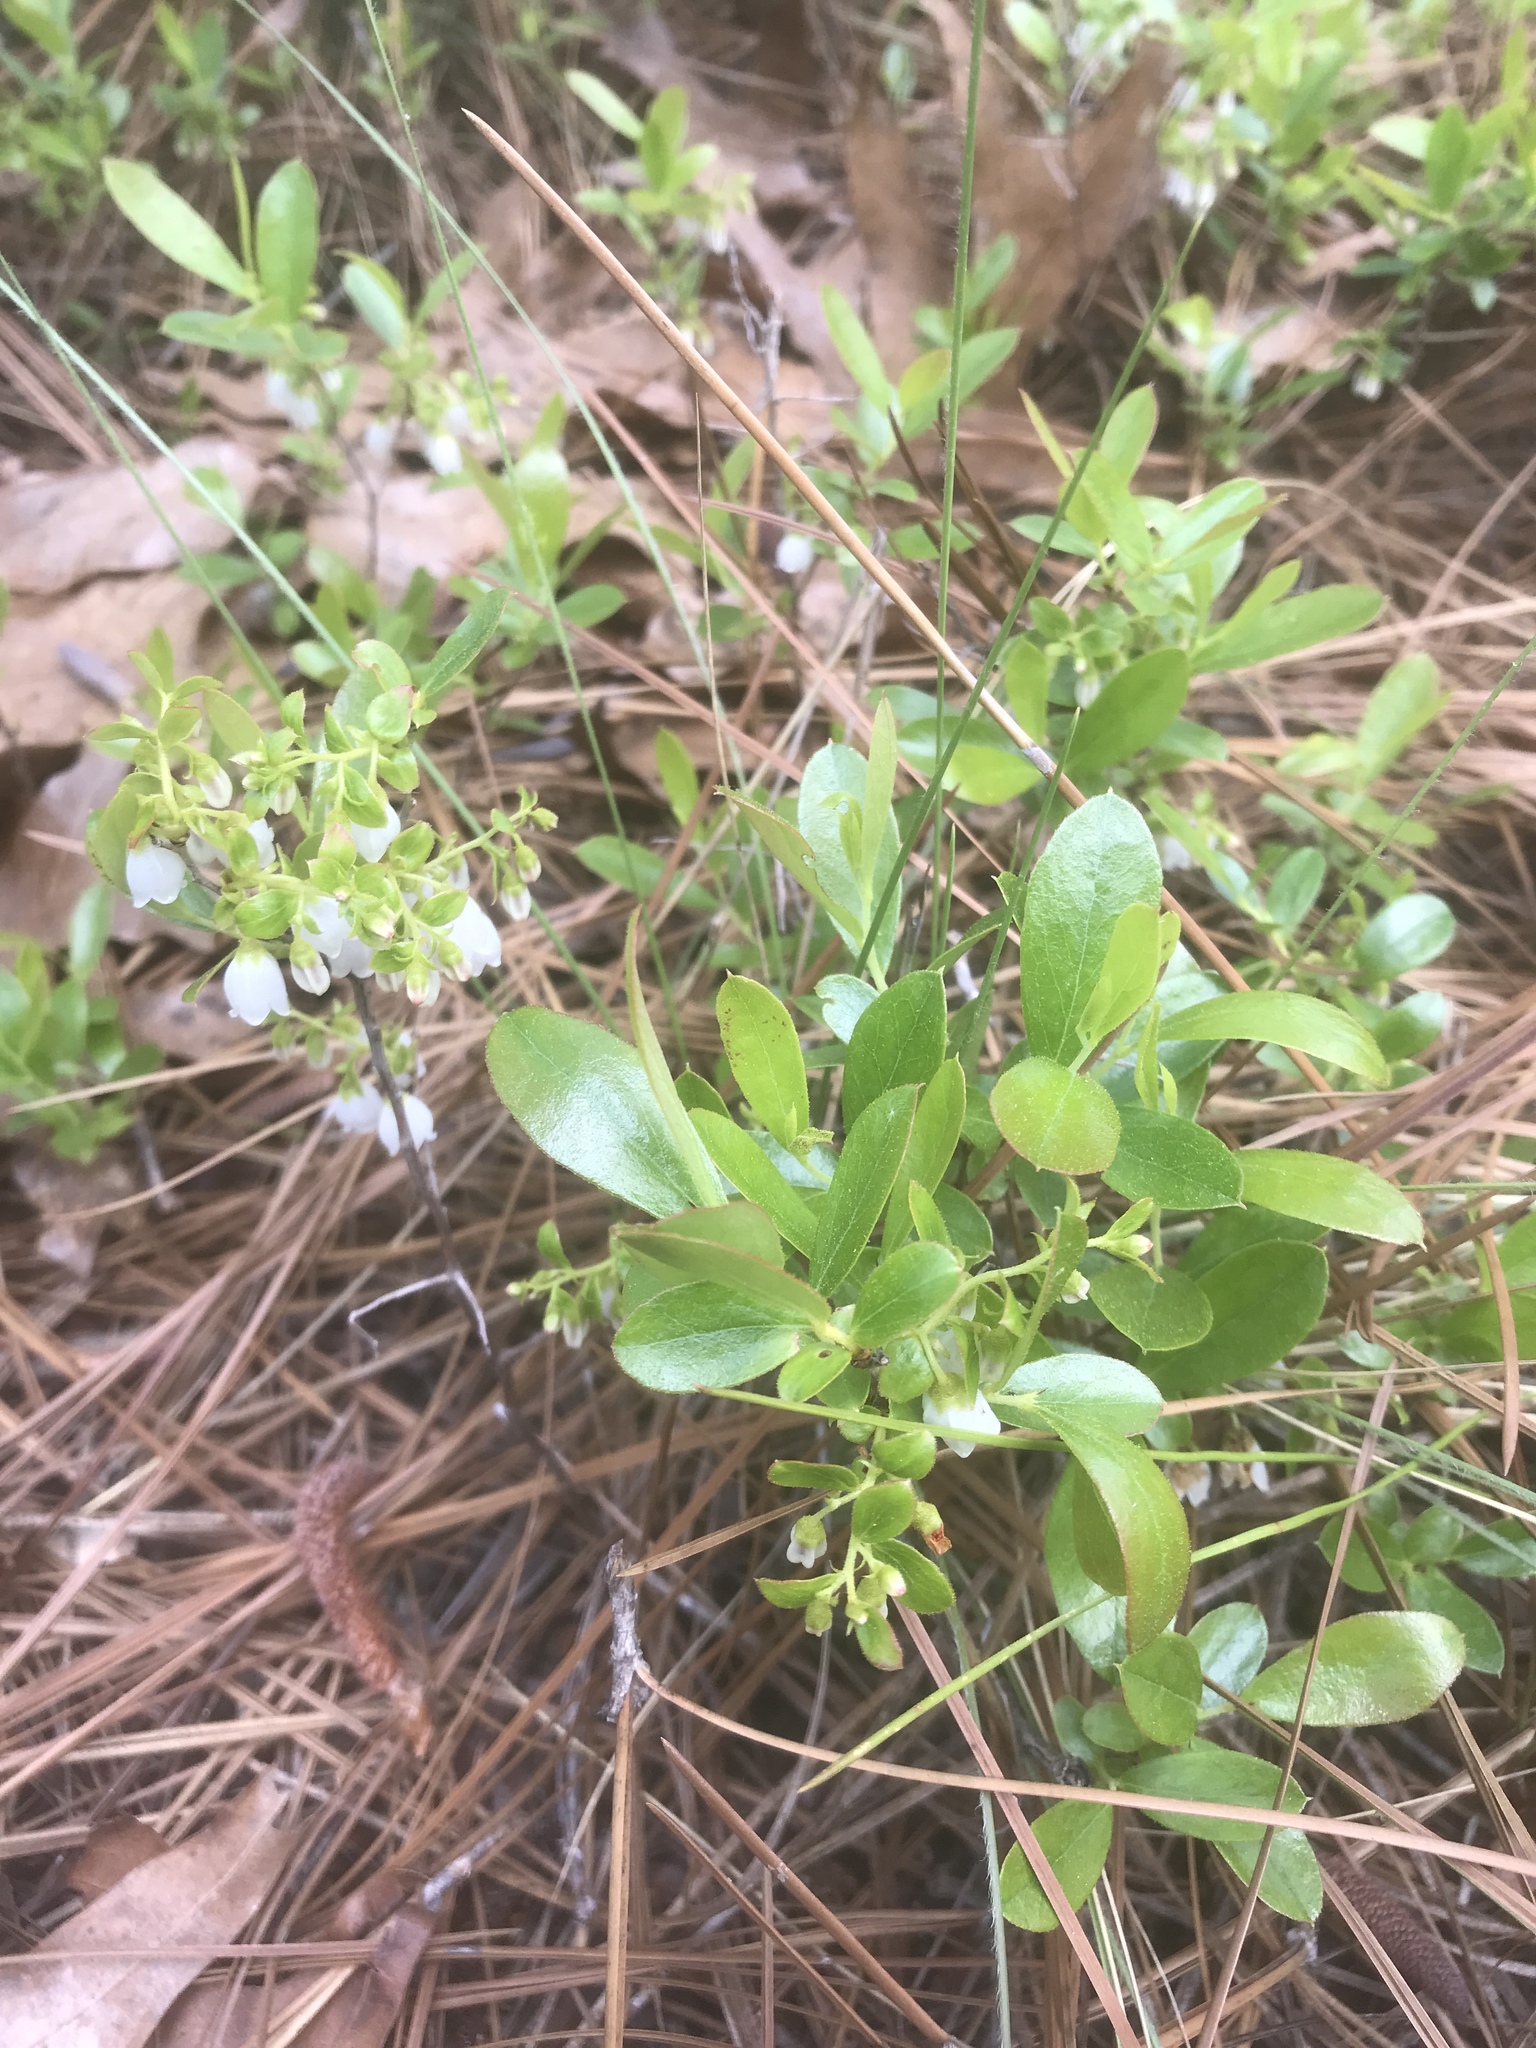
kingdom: Plantae
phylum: Tracheophyta
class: Magnoliopsida
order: Ericales
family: Ericaceae
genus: Gaylussacia
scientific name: Gaylussacia dumosa
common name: Dwarf huckleberry
